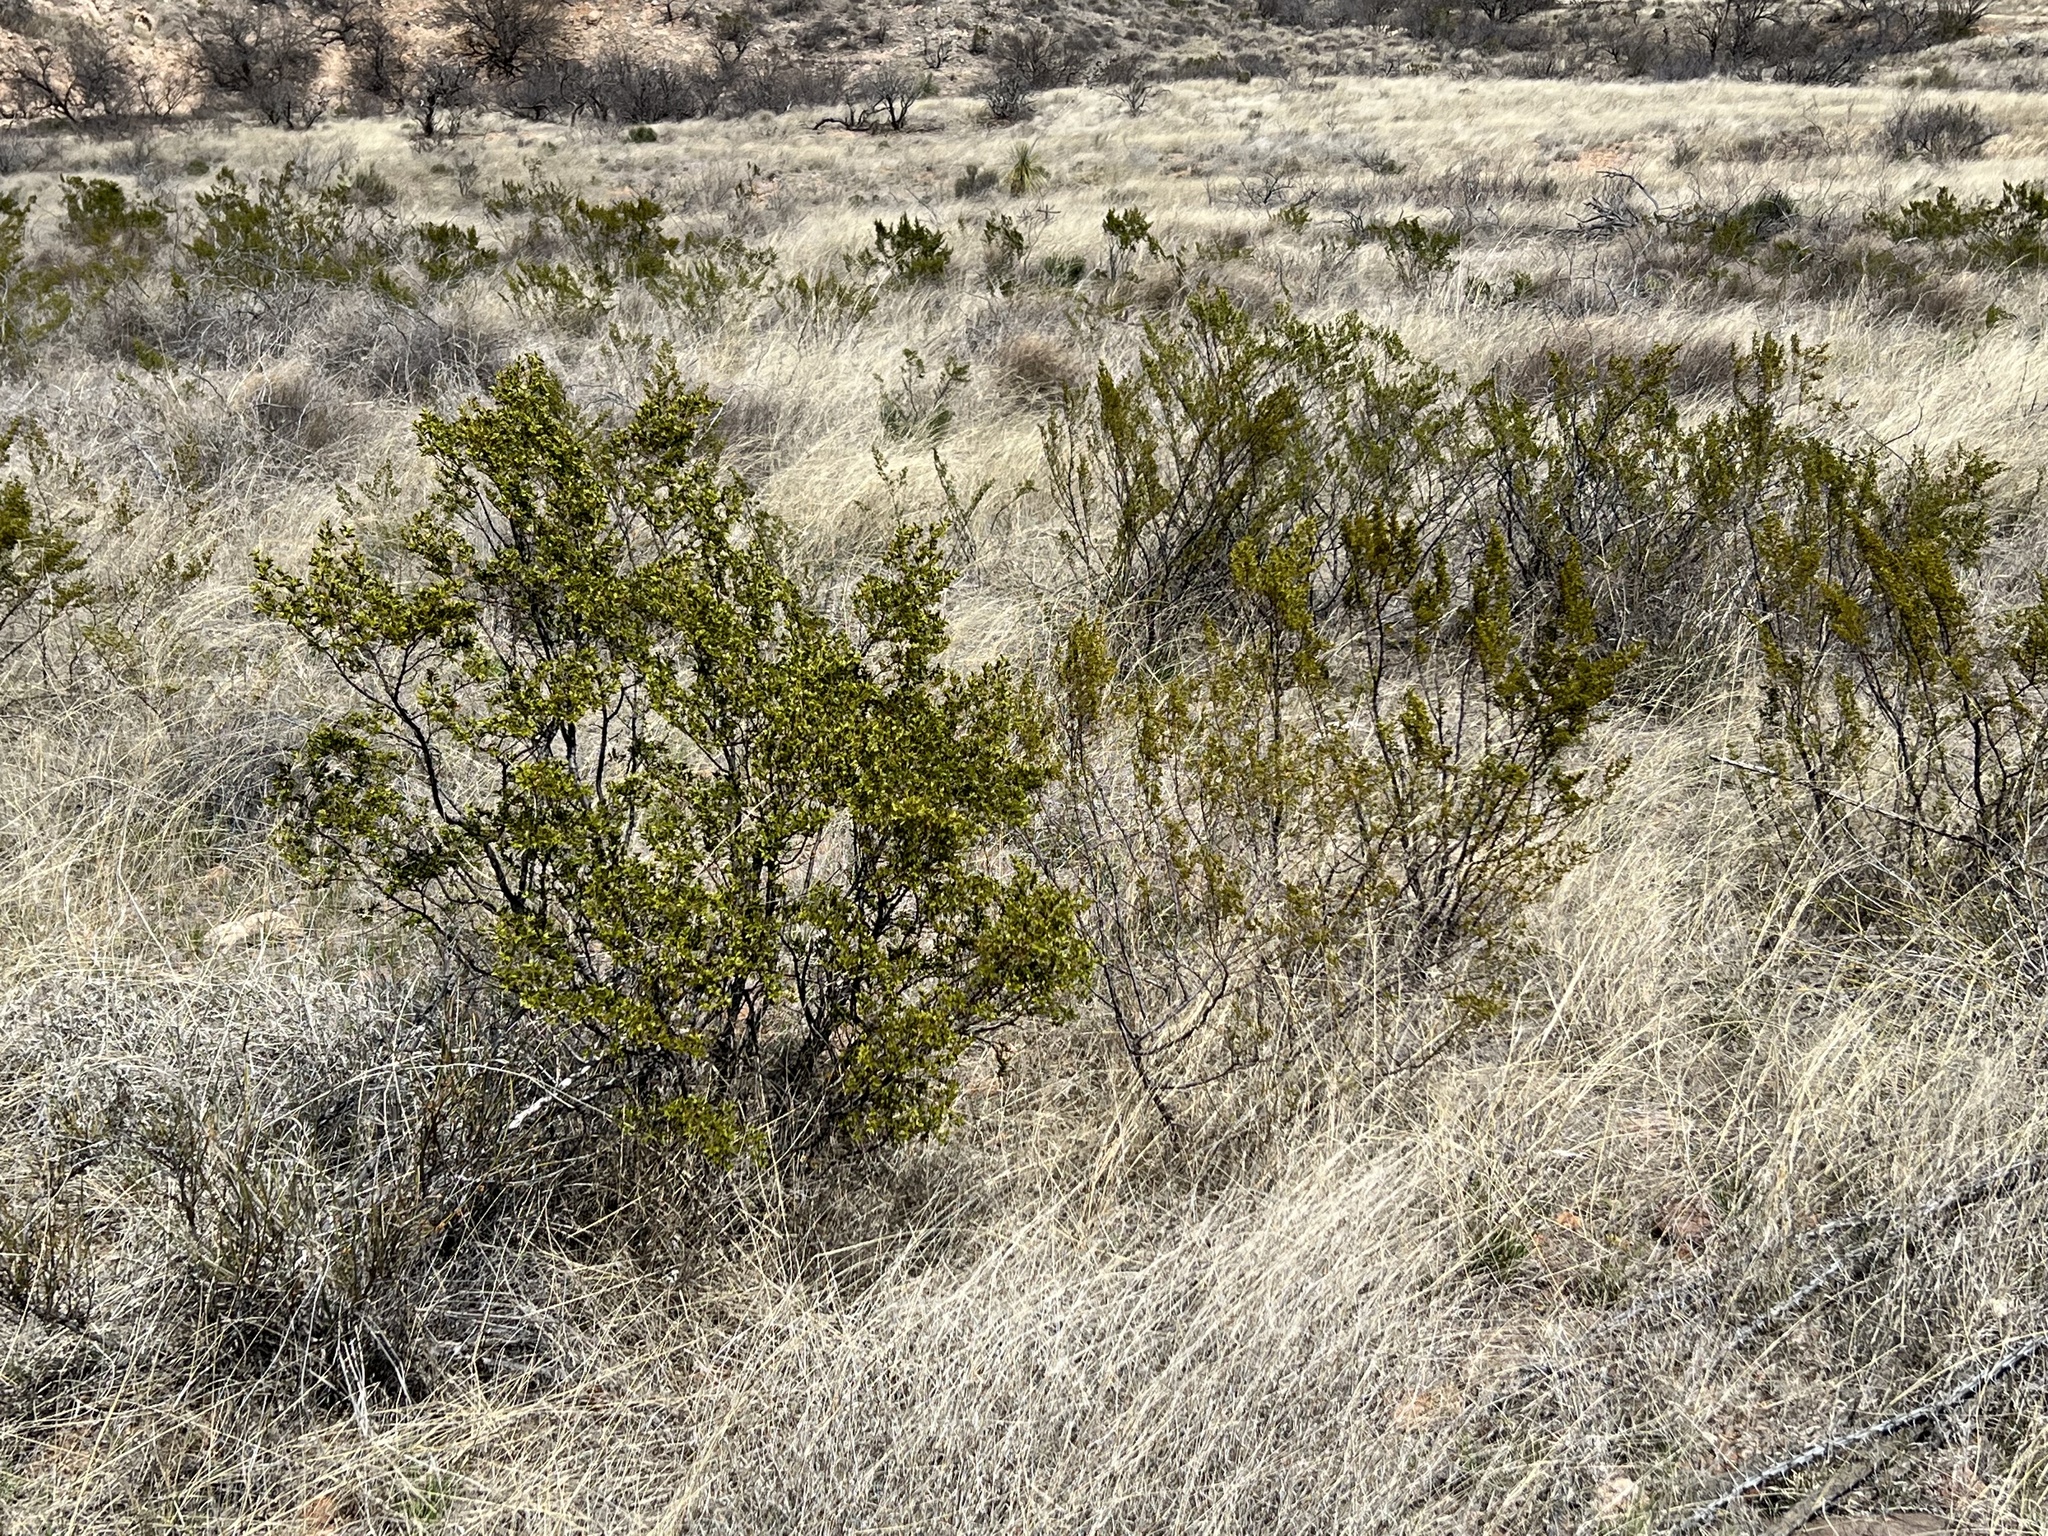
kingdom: Plantae
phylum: Tracheophyta
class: Magnoliopsida
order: Zygophyllales
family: Zygophyllaceae
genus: Larrea
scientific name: Larrea tridentata
